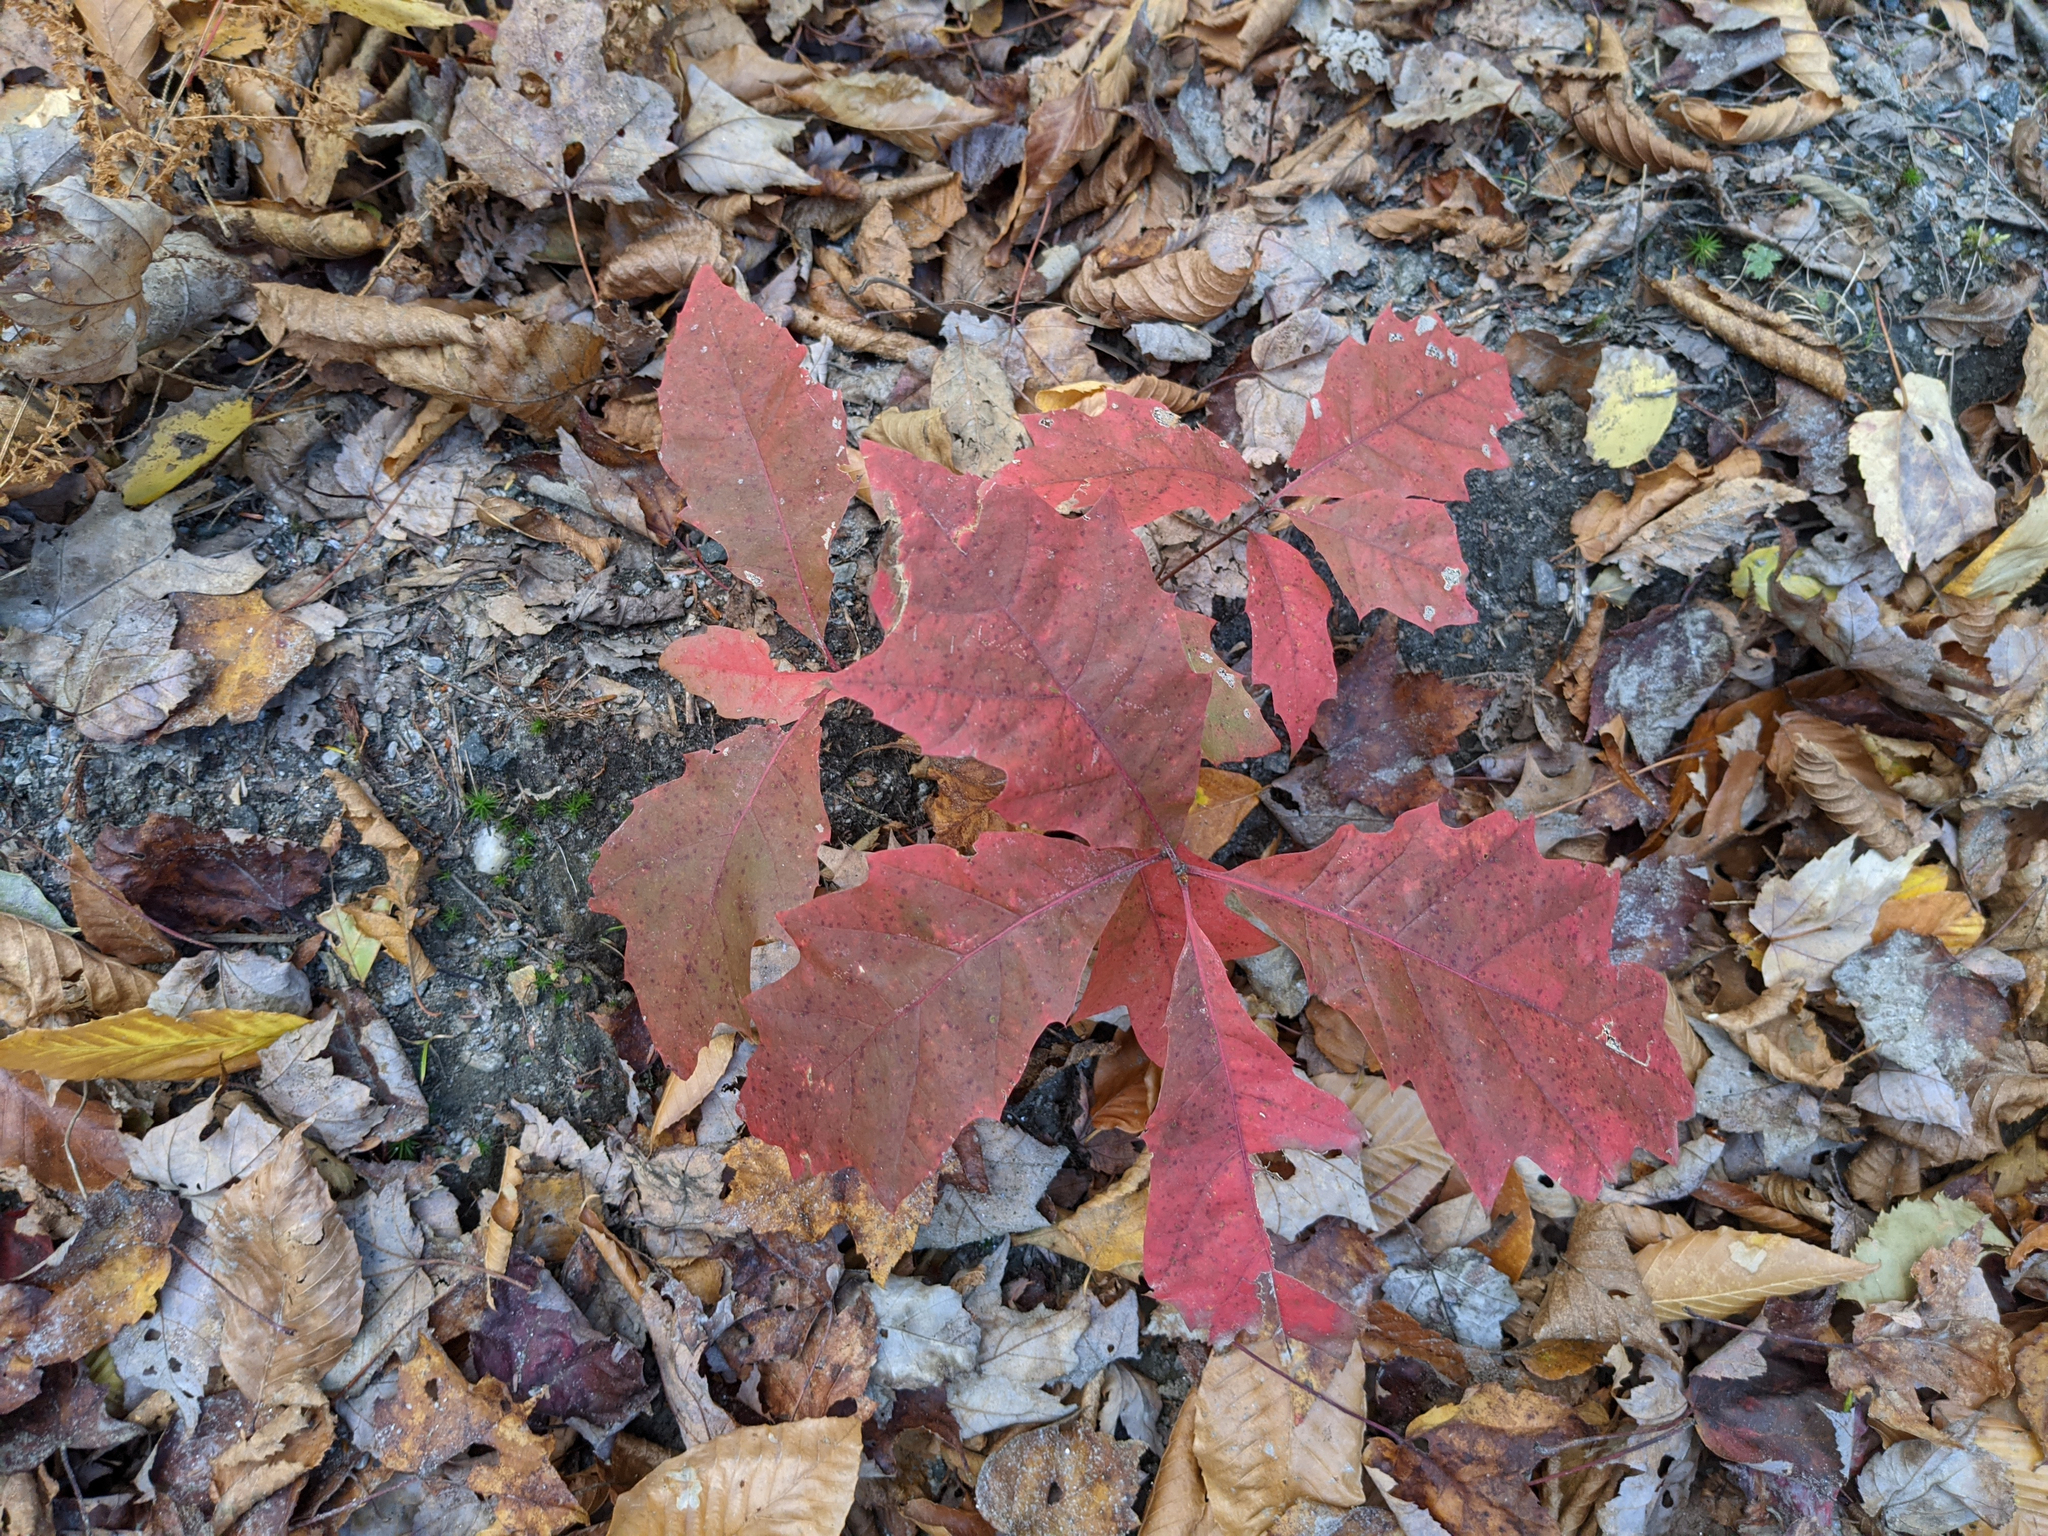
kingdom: Plantae
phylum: Tracheophyta
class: Magnoliopsida
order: Fagales
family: Fagaceae
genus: Quercus
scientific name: Quercus rubra
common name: Red oak
